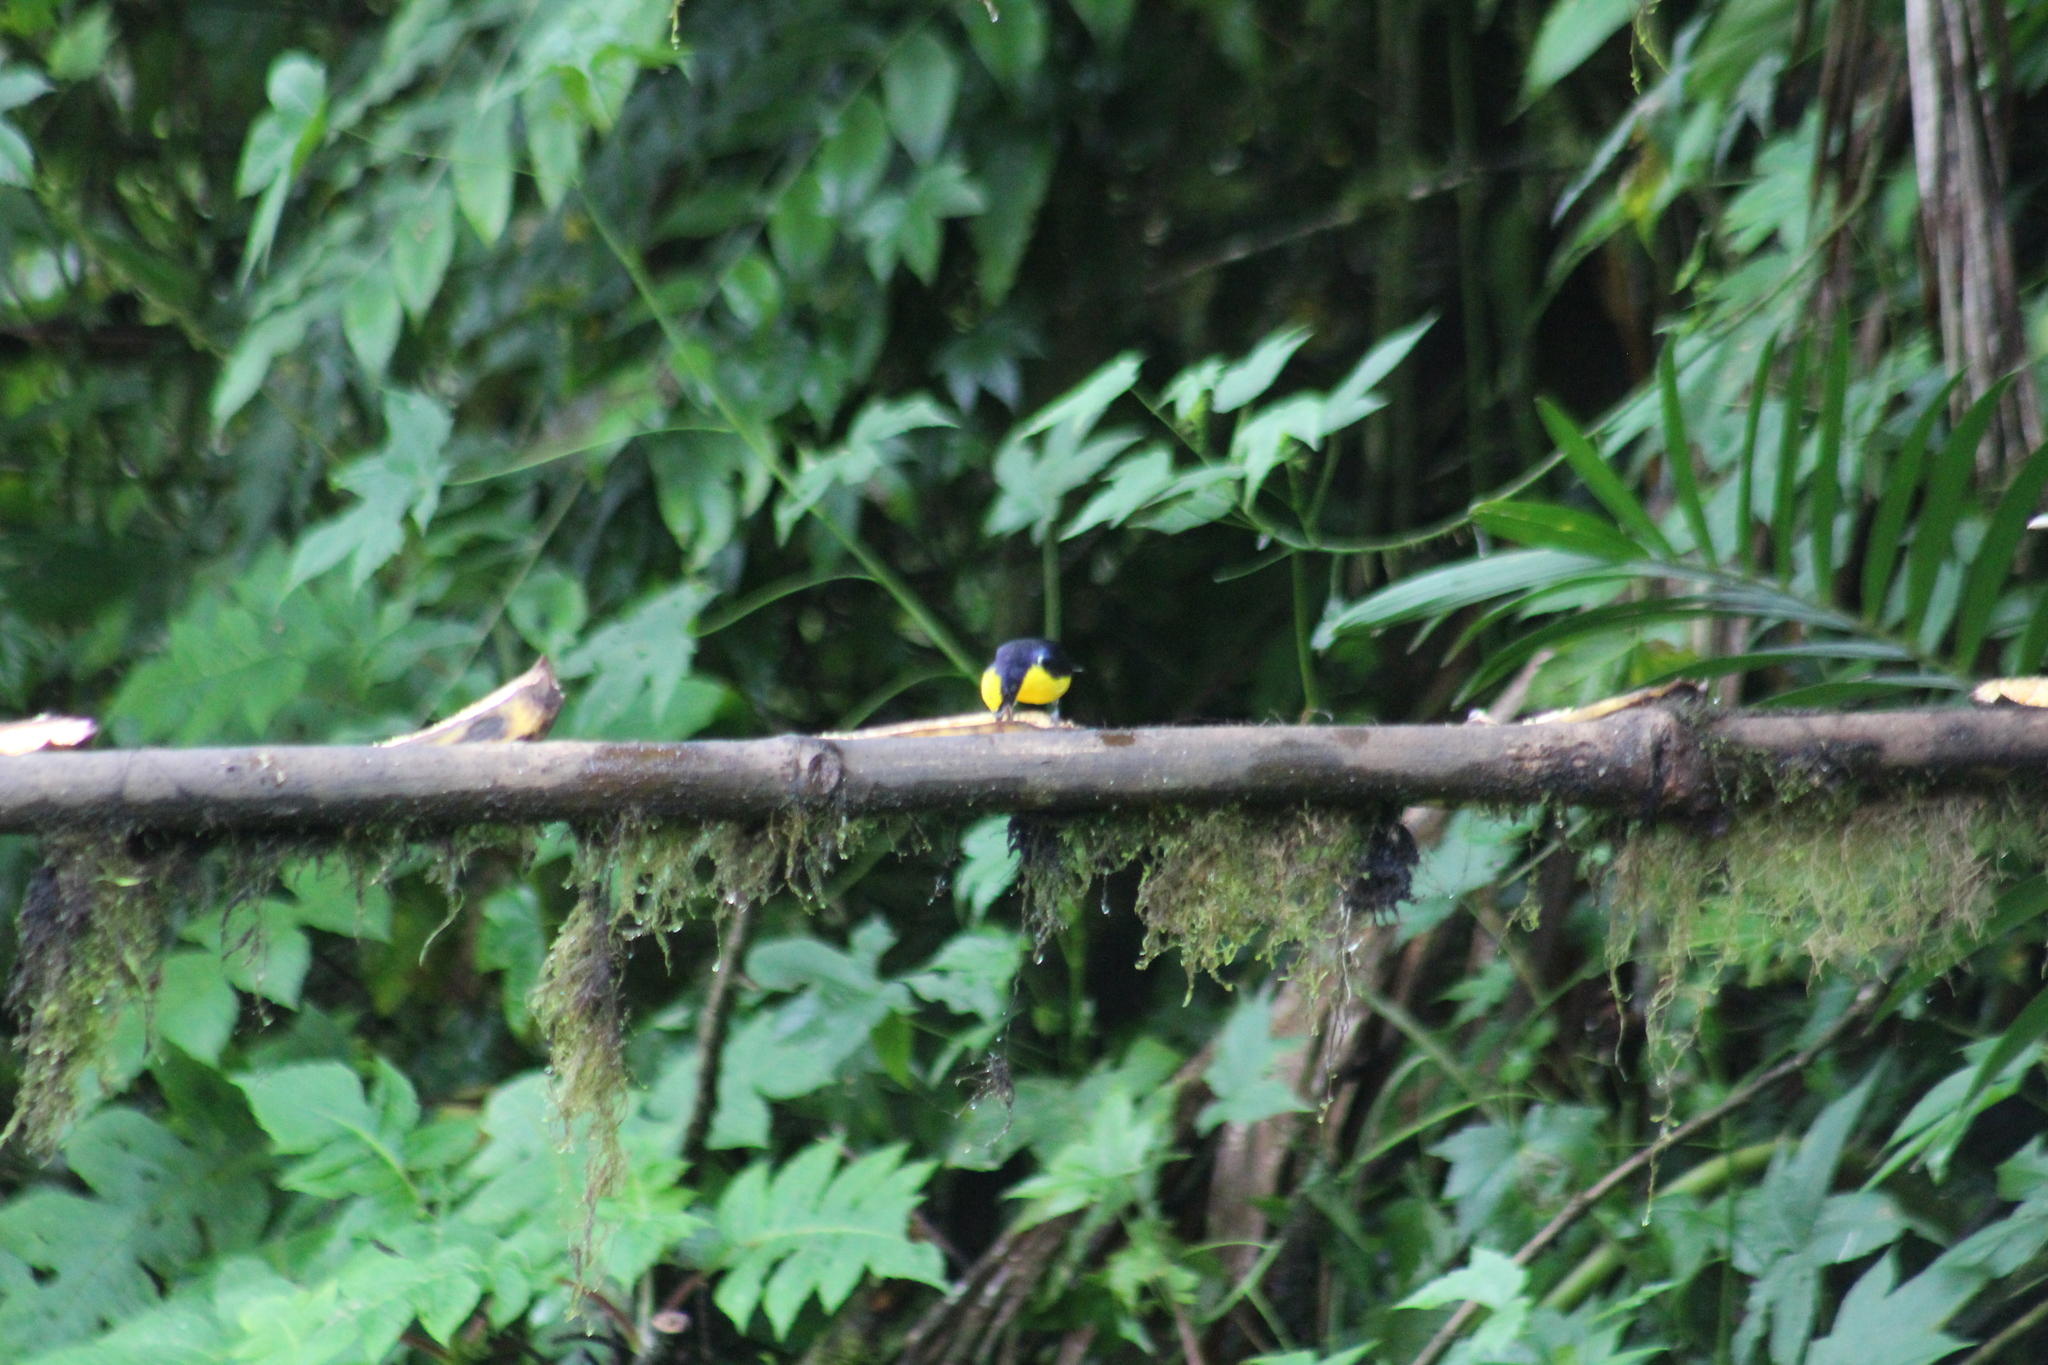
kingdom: Animalia
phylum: Chordata
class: Aves
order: Passeriformes
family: Fringillidae
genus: Euphonia
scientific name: Euphonia laniirostris
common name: Thick-billed euphonia
